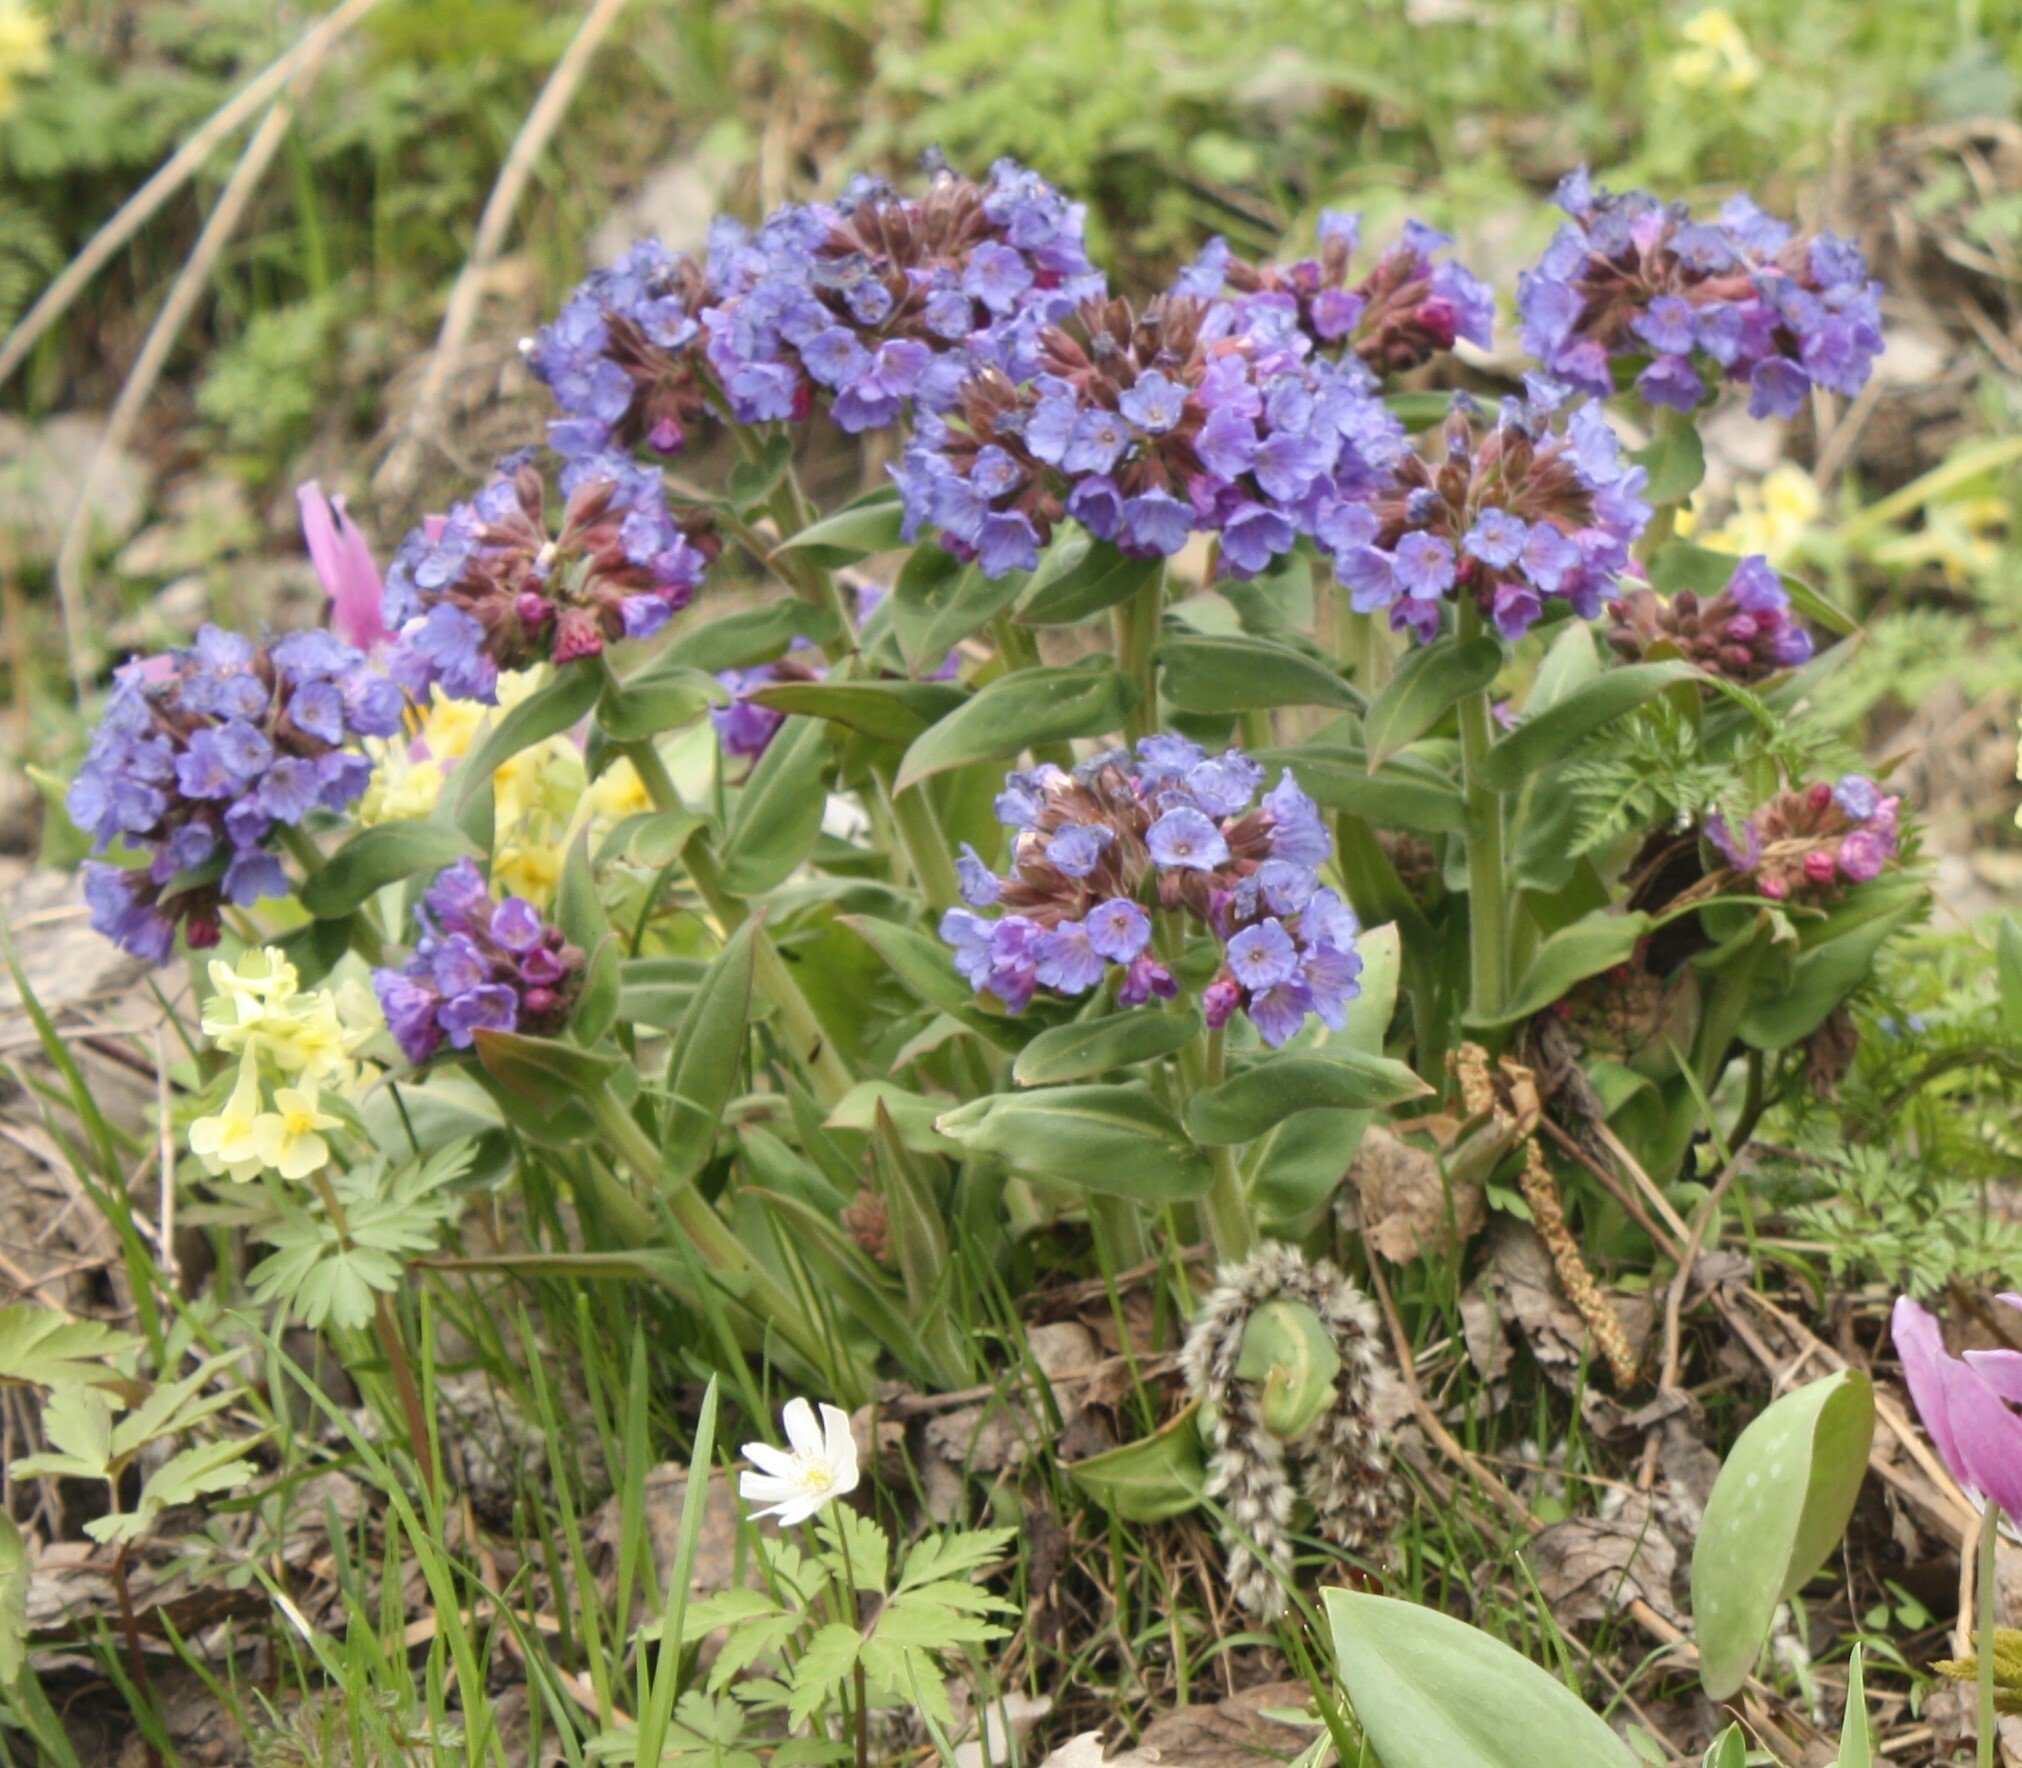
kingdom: Plantae
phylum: Tracheophyta
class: Magnoliopsida
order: Boraginales
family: Boraginaceae
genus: Pulmonaria
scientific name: Pulmonaria mollis
